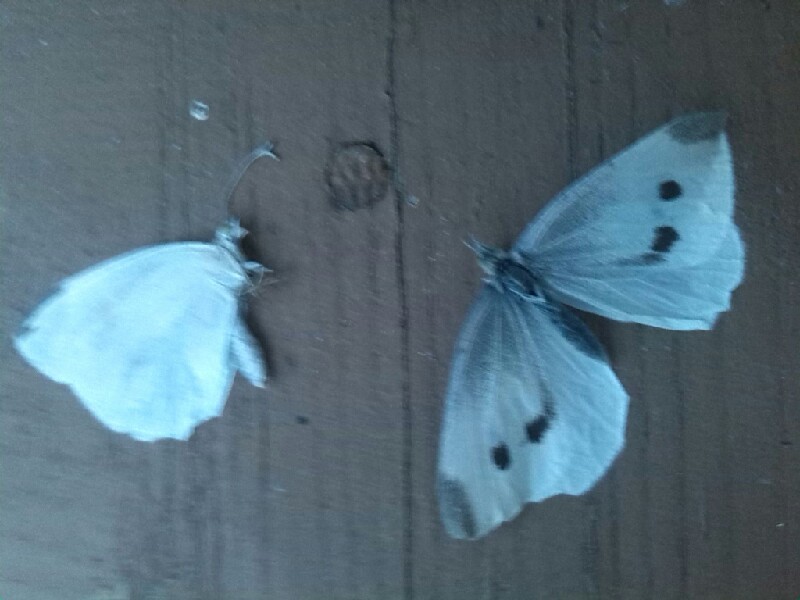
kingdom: Animalia
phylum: Arthropoda
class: Insecta
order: Lepidoptera
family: Pieridae
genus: Pieris
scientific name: Pieris rapae
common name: Small white
